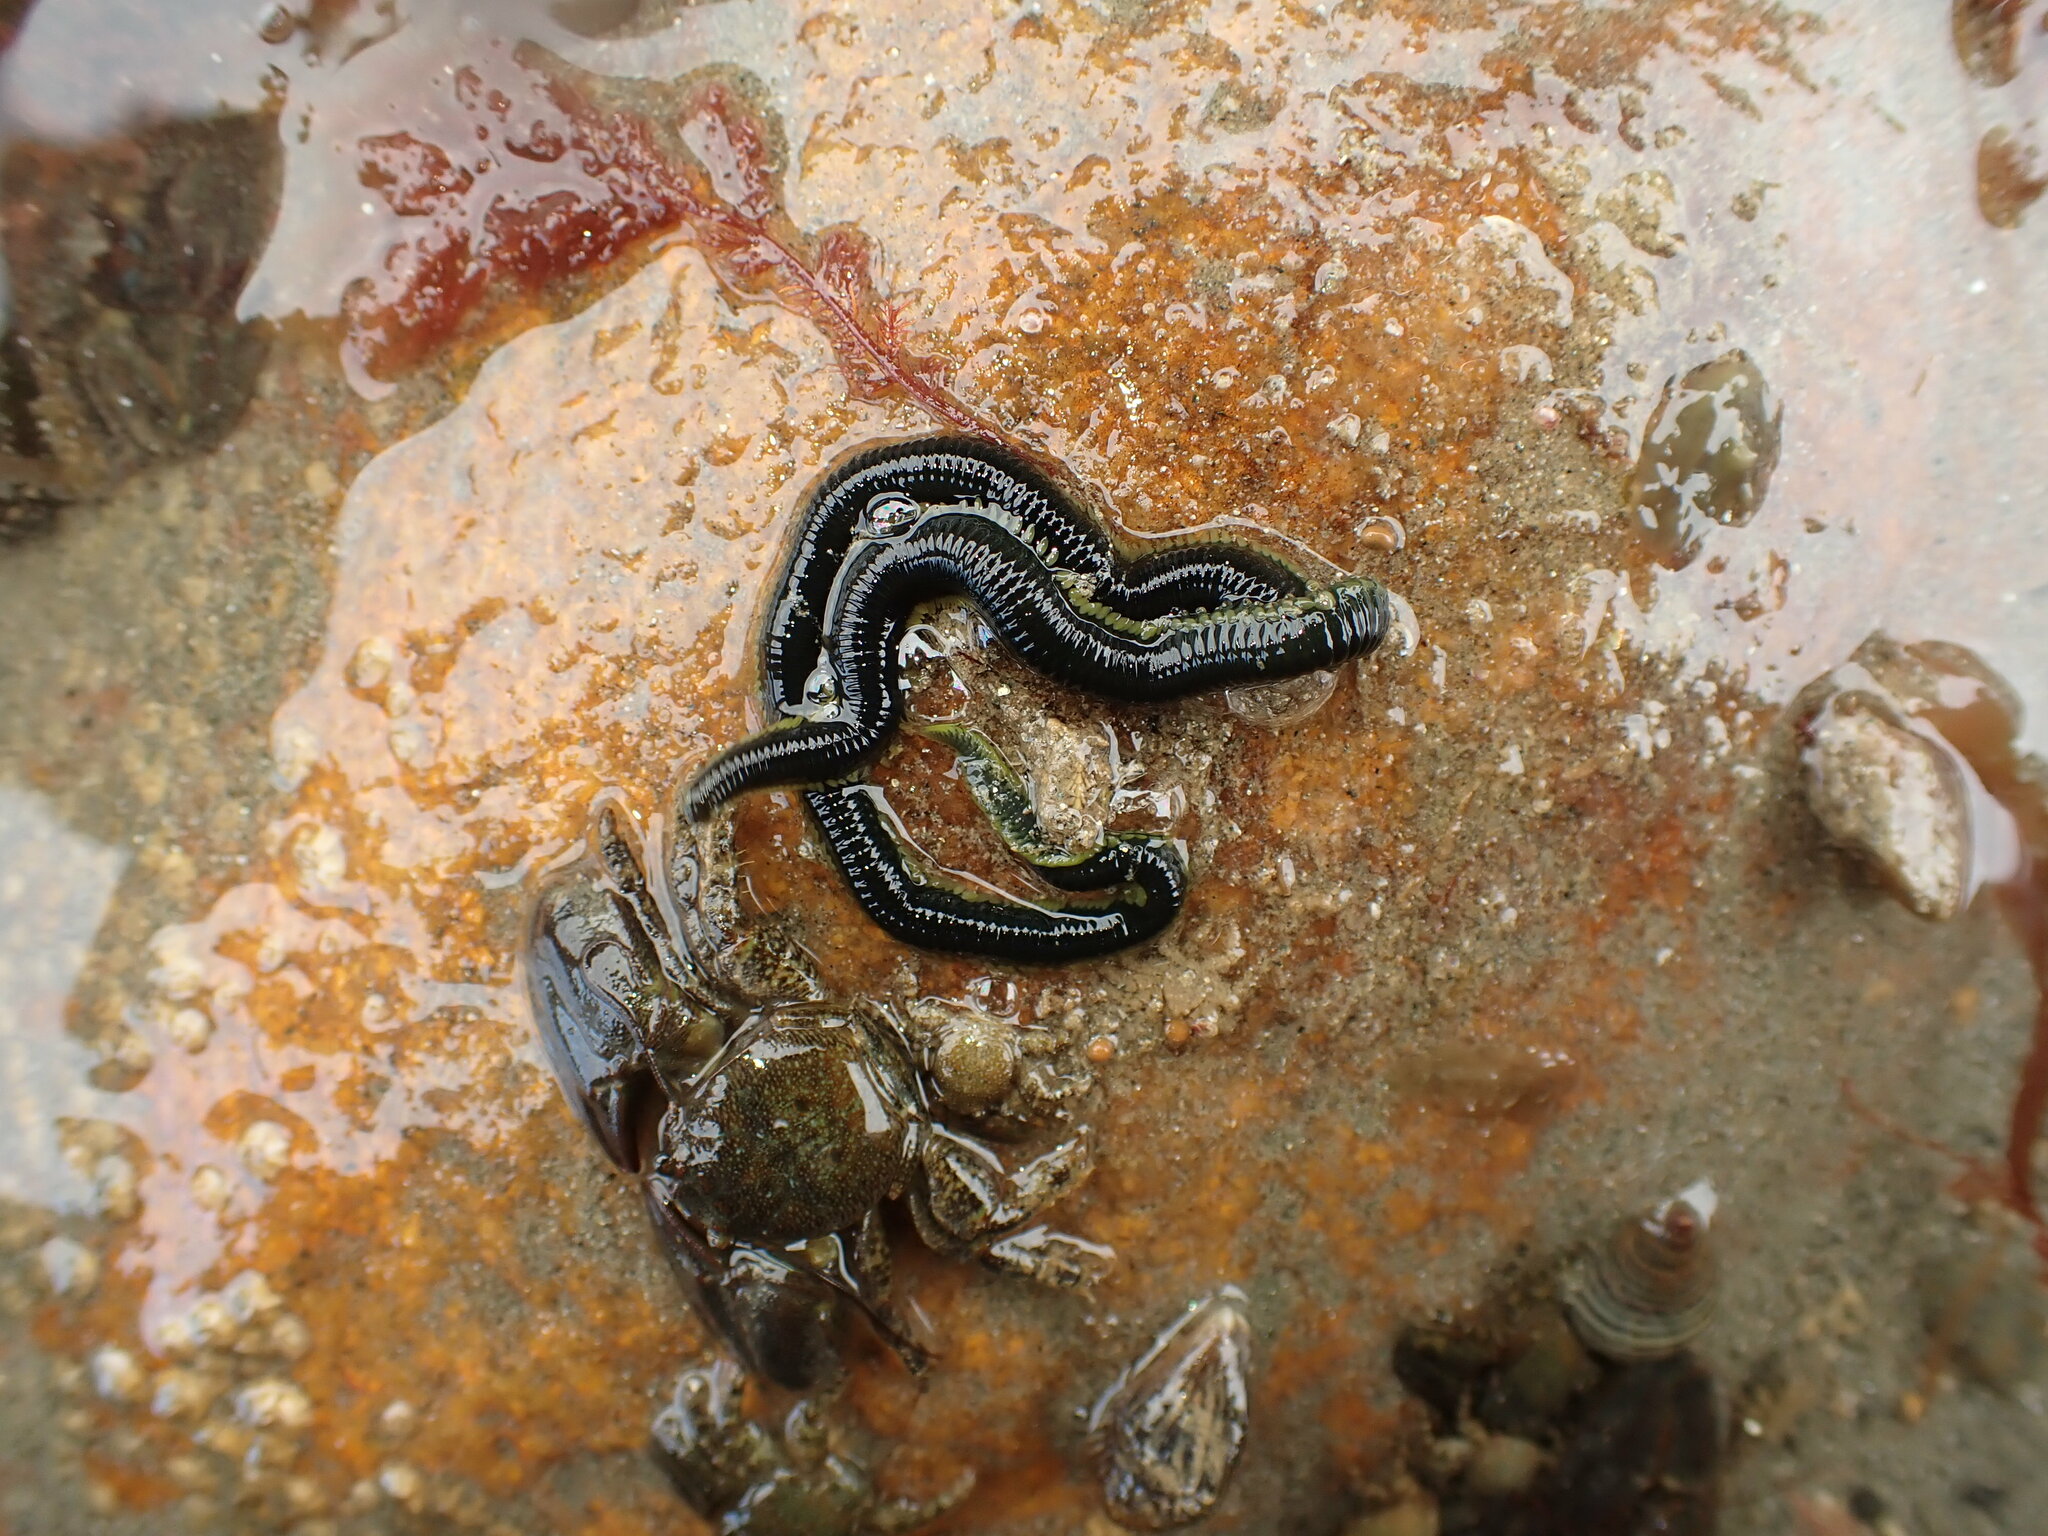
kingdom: Animalia
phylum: Annelida
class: Polychaeta
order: Phyllodocida
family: Phyllodocidae
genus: Eulalia
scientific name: Eulalia microphylla
